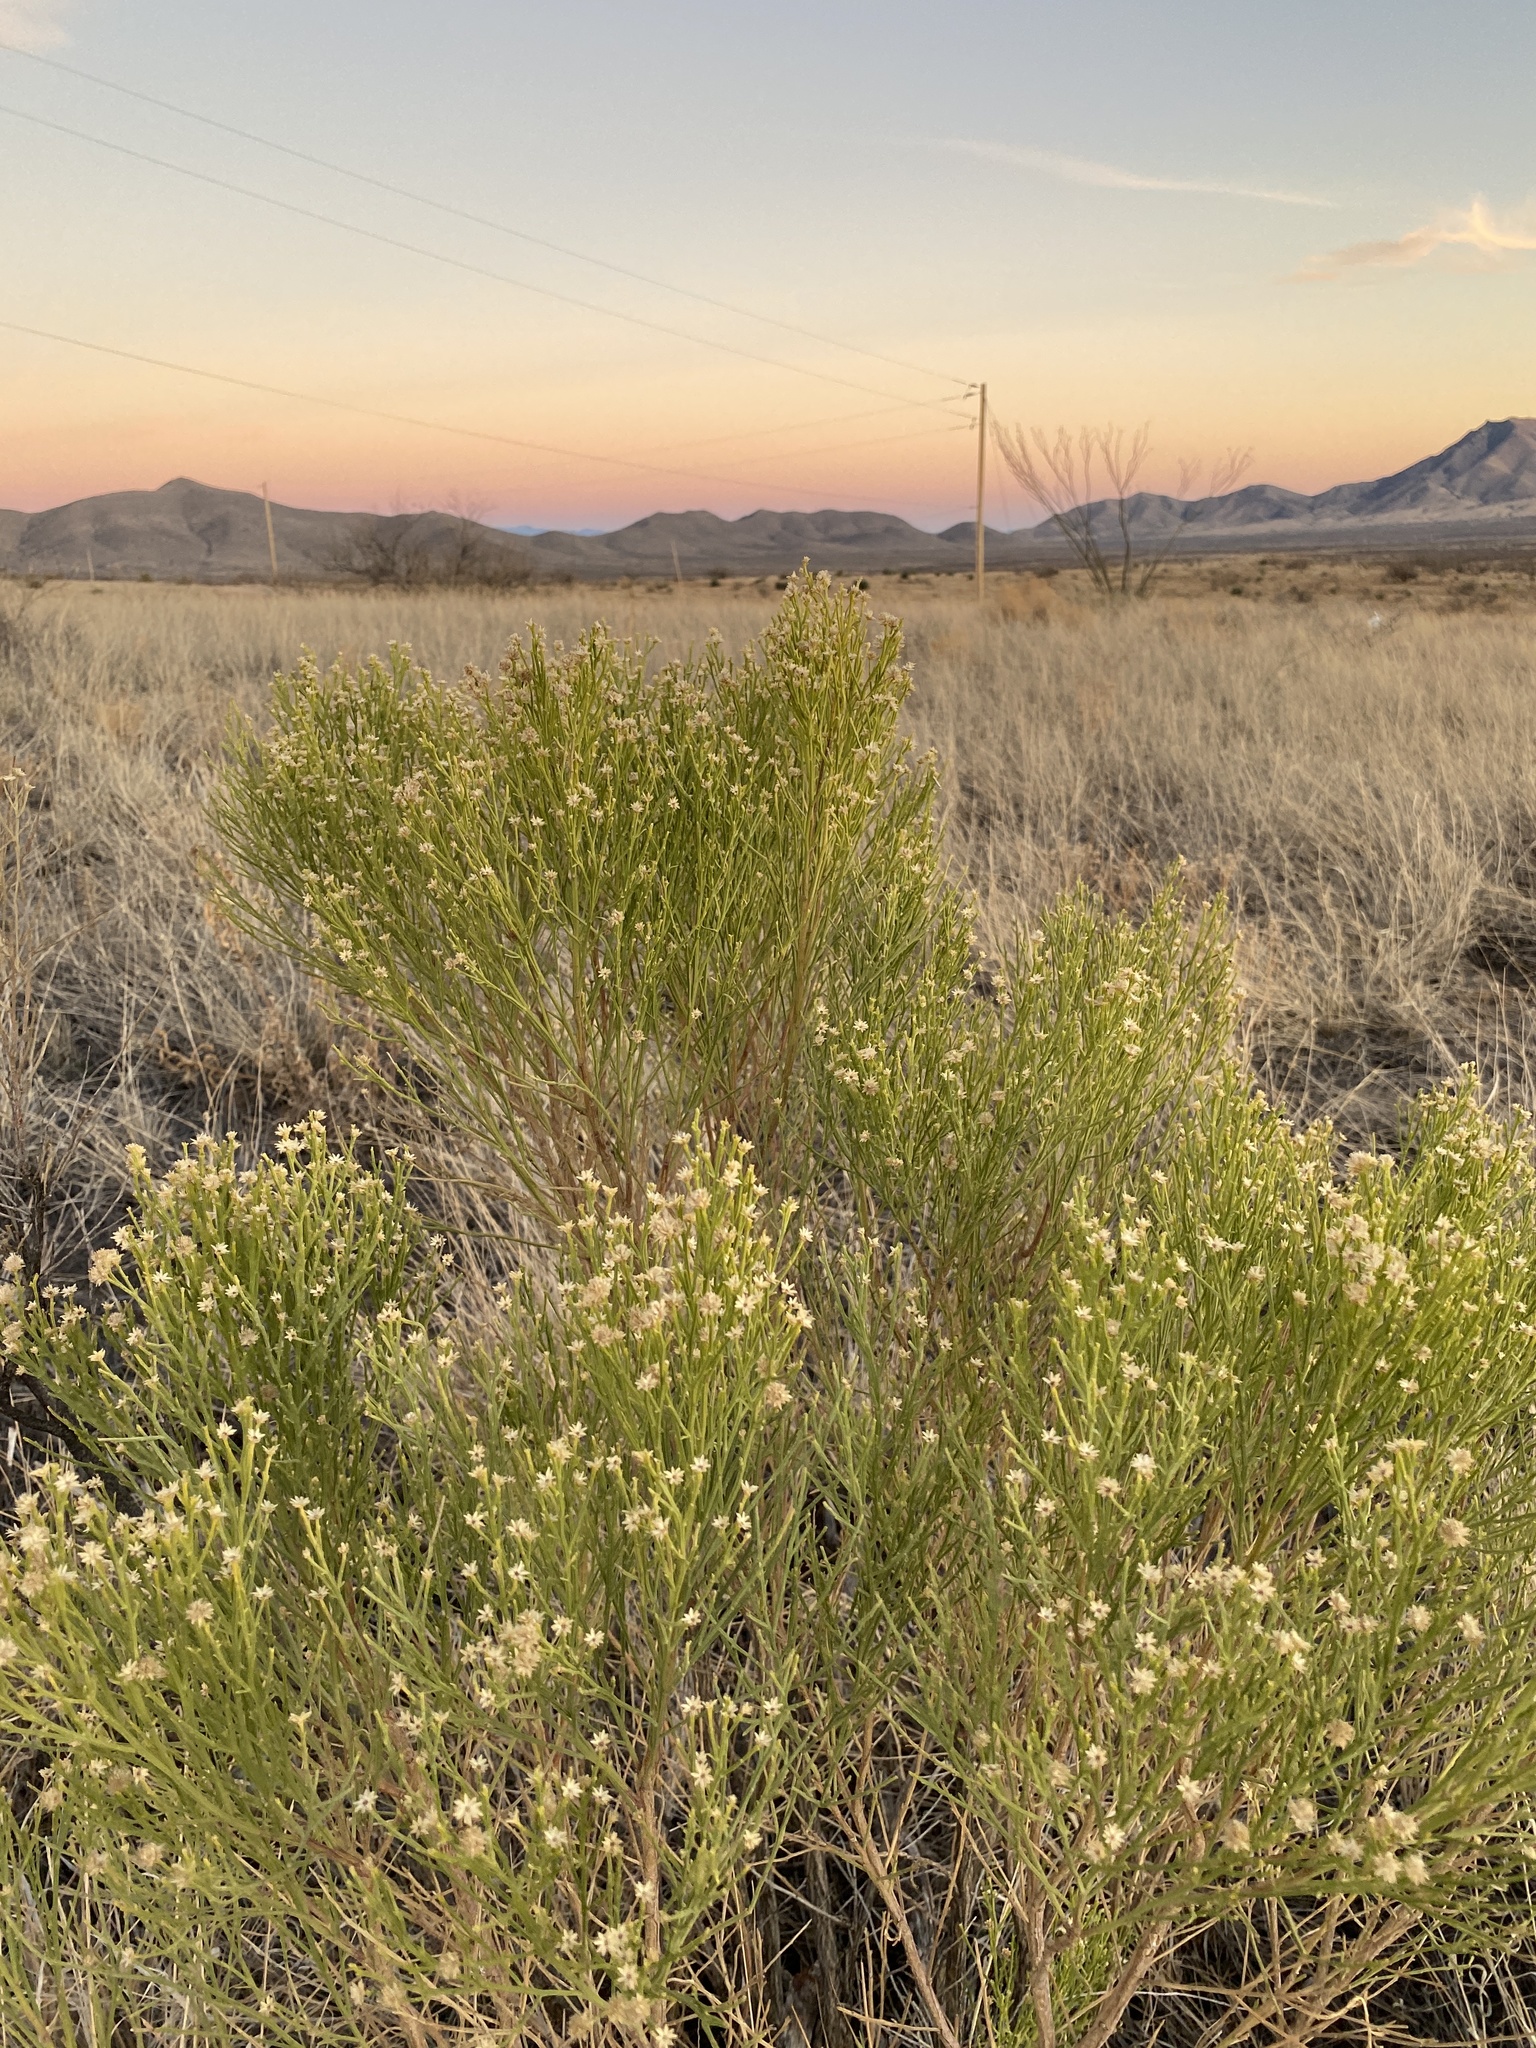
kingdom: Plantae
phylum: Tracheophyta
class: Magnoliopsida
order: Asterales
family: Asteraceae
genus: Baccharis
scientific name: Baccharis sarothroides
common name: Desert-broom
